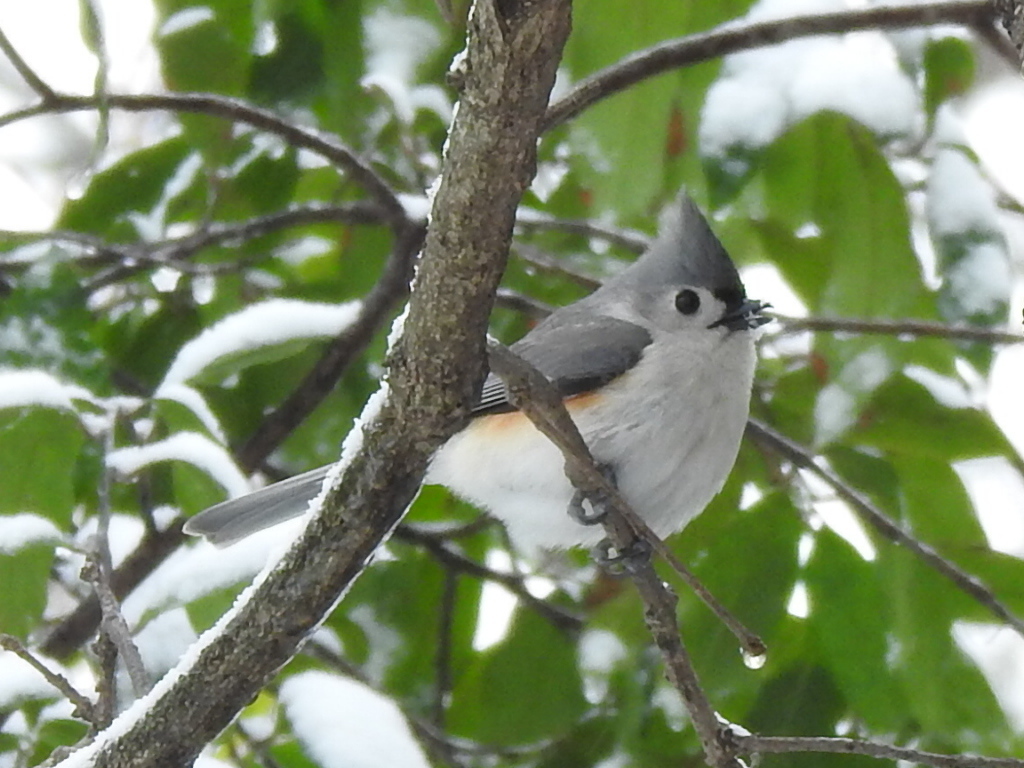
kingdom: Animalia
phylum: Chordata
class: Aves
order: Passeriformes
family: Paridae
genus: Baeolophus
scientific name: Baeolophus bicolor
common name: Tufted titmouse
